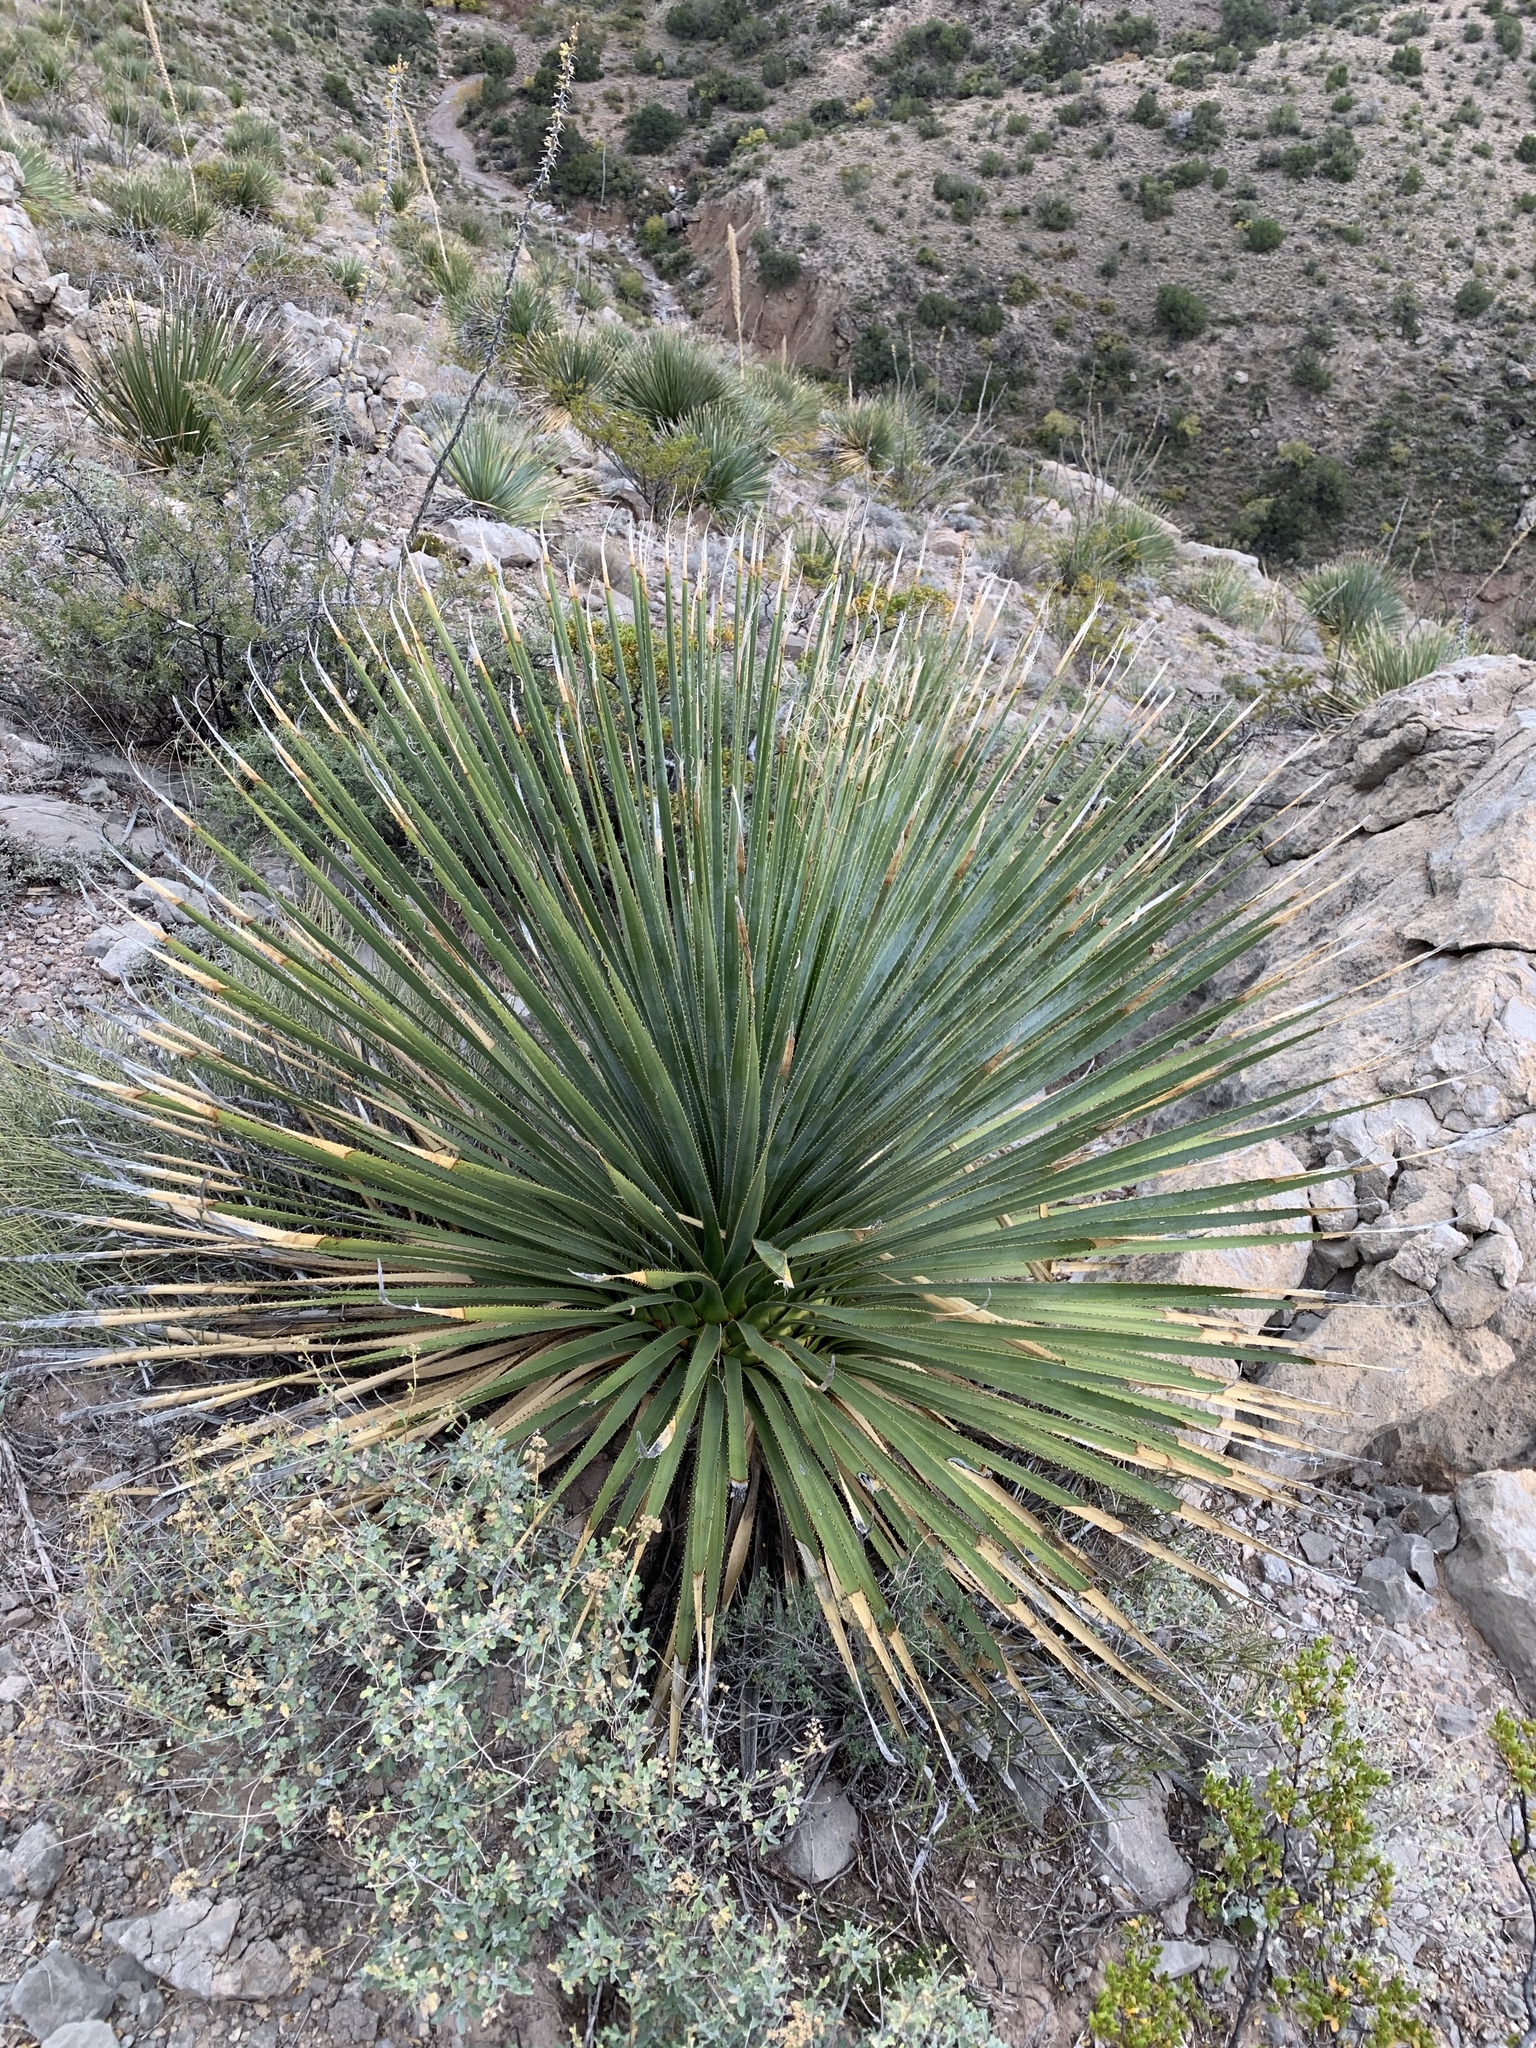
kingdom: Plantae
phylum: Tracheophyta
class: Liliopsida
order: Asparagales
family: Asparagaceae
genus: Dasylirion
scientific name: Dasylirion wheeleri
